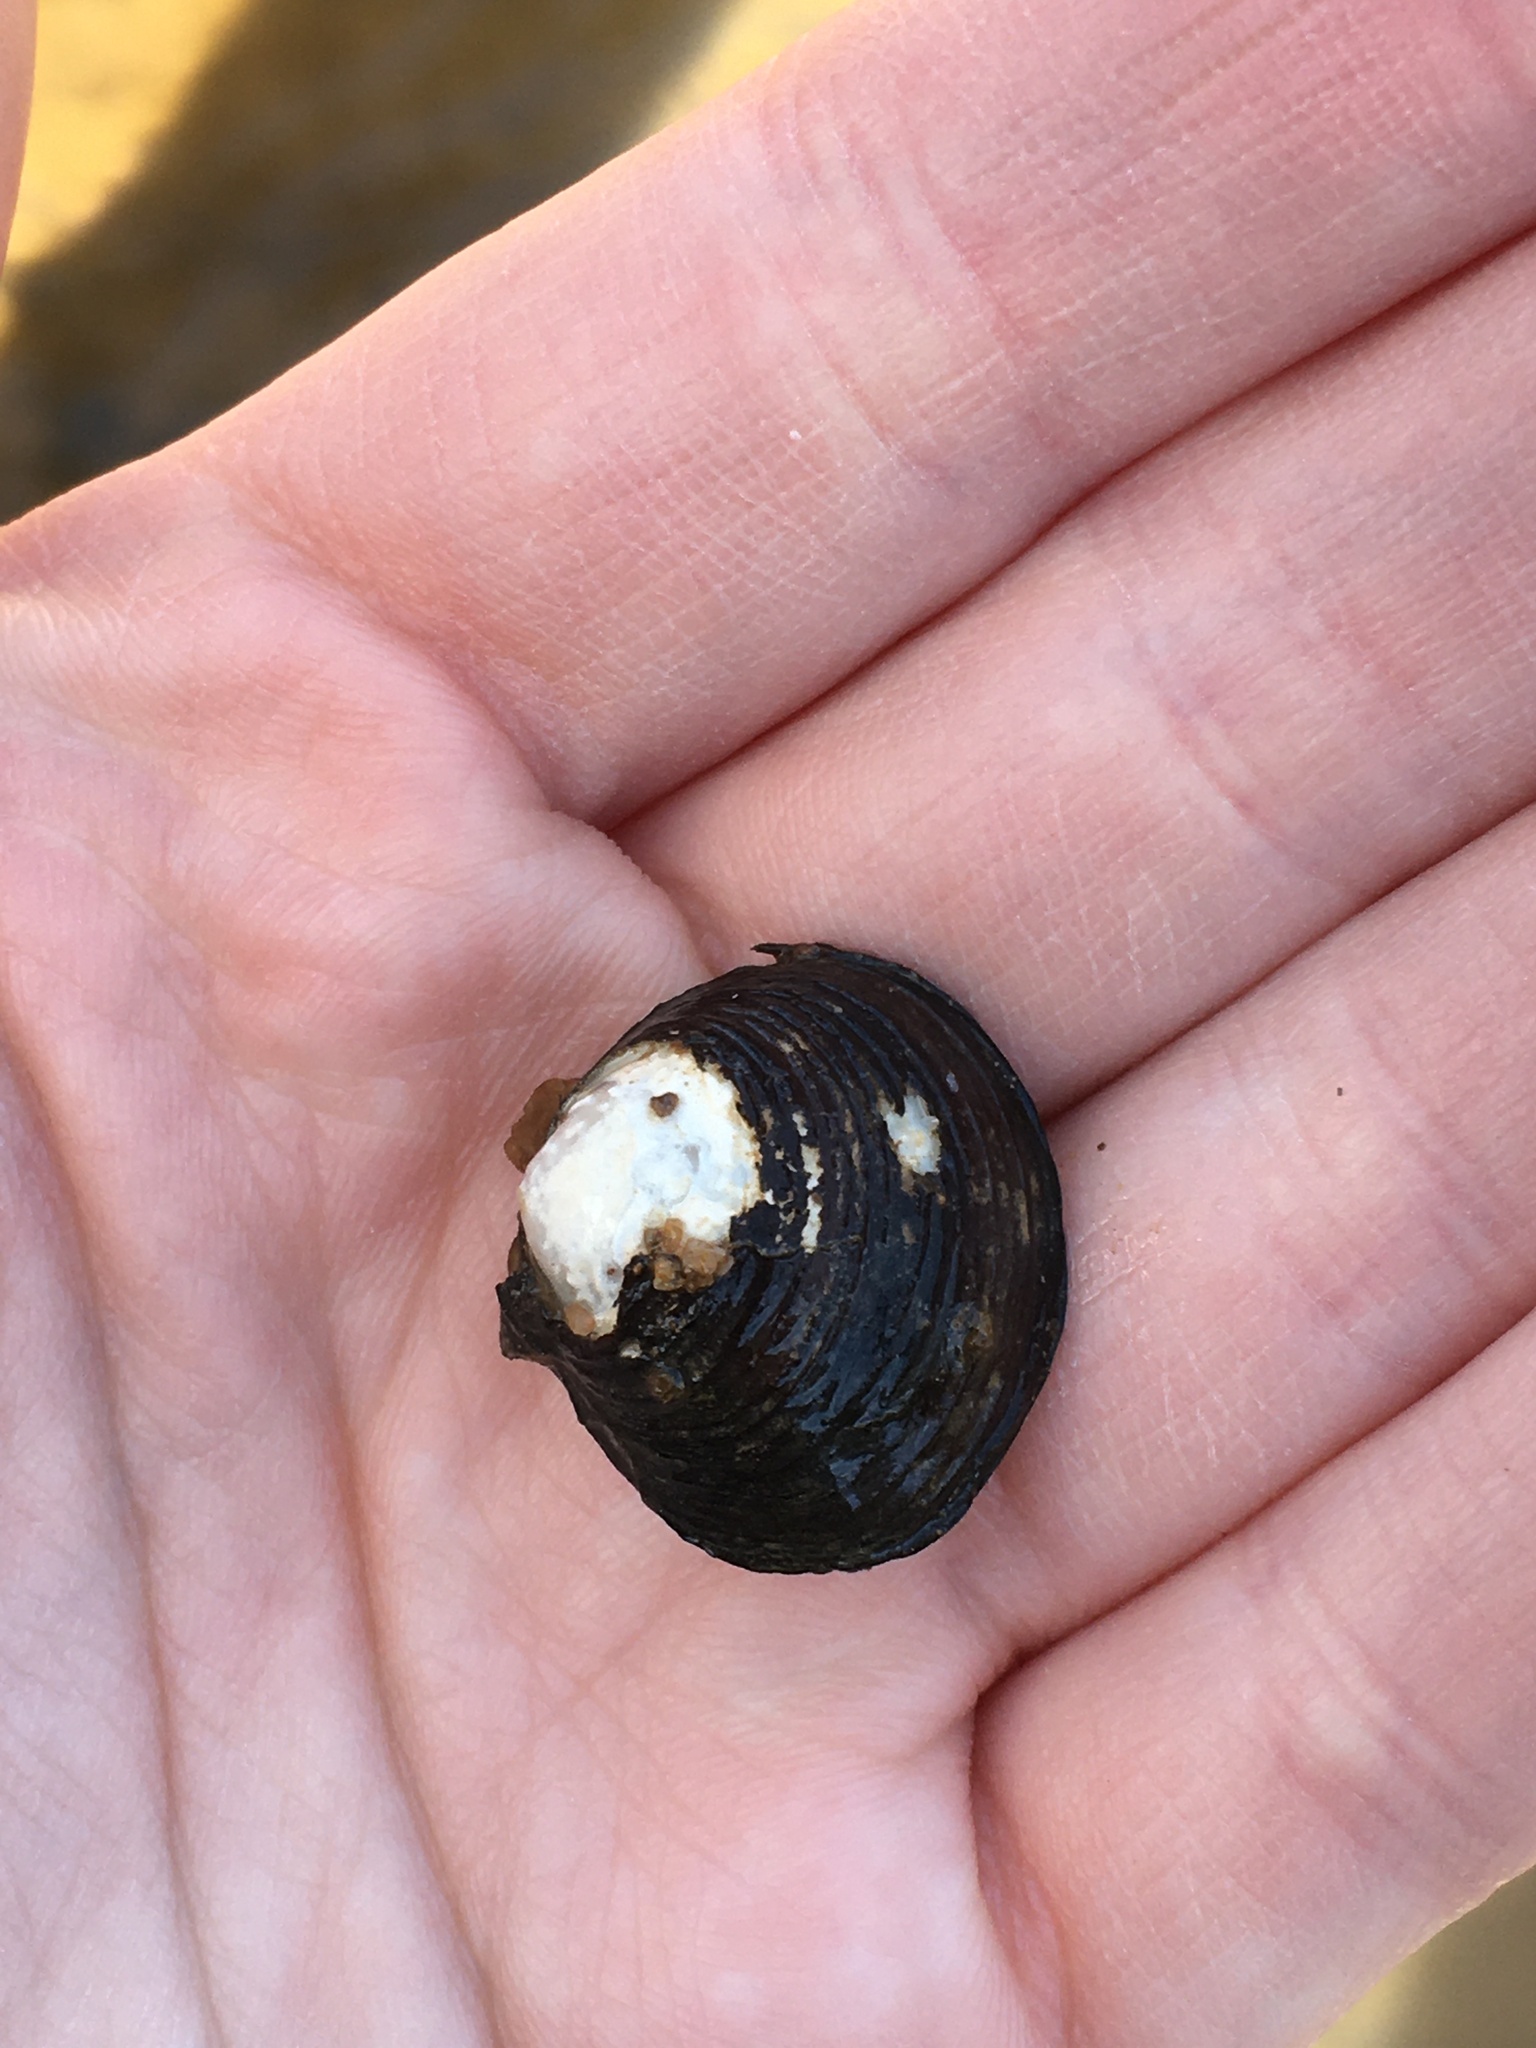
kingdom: Animalia
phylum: Mollusca
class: Bivalvia
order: Venerida
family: Cyrenidae
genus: Corbicula
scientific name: Corbicula fluminea
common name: Asian clam
